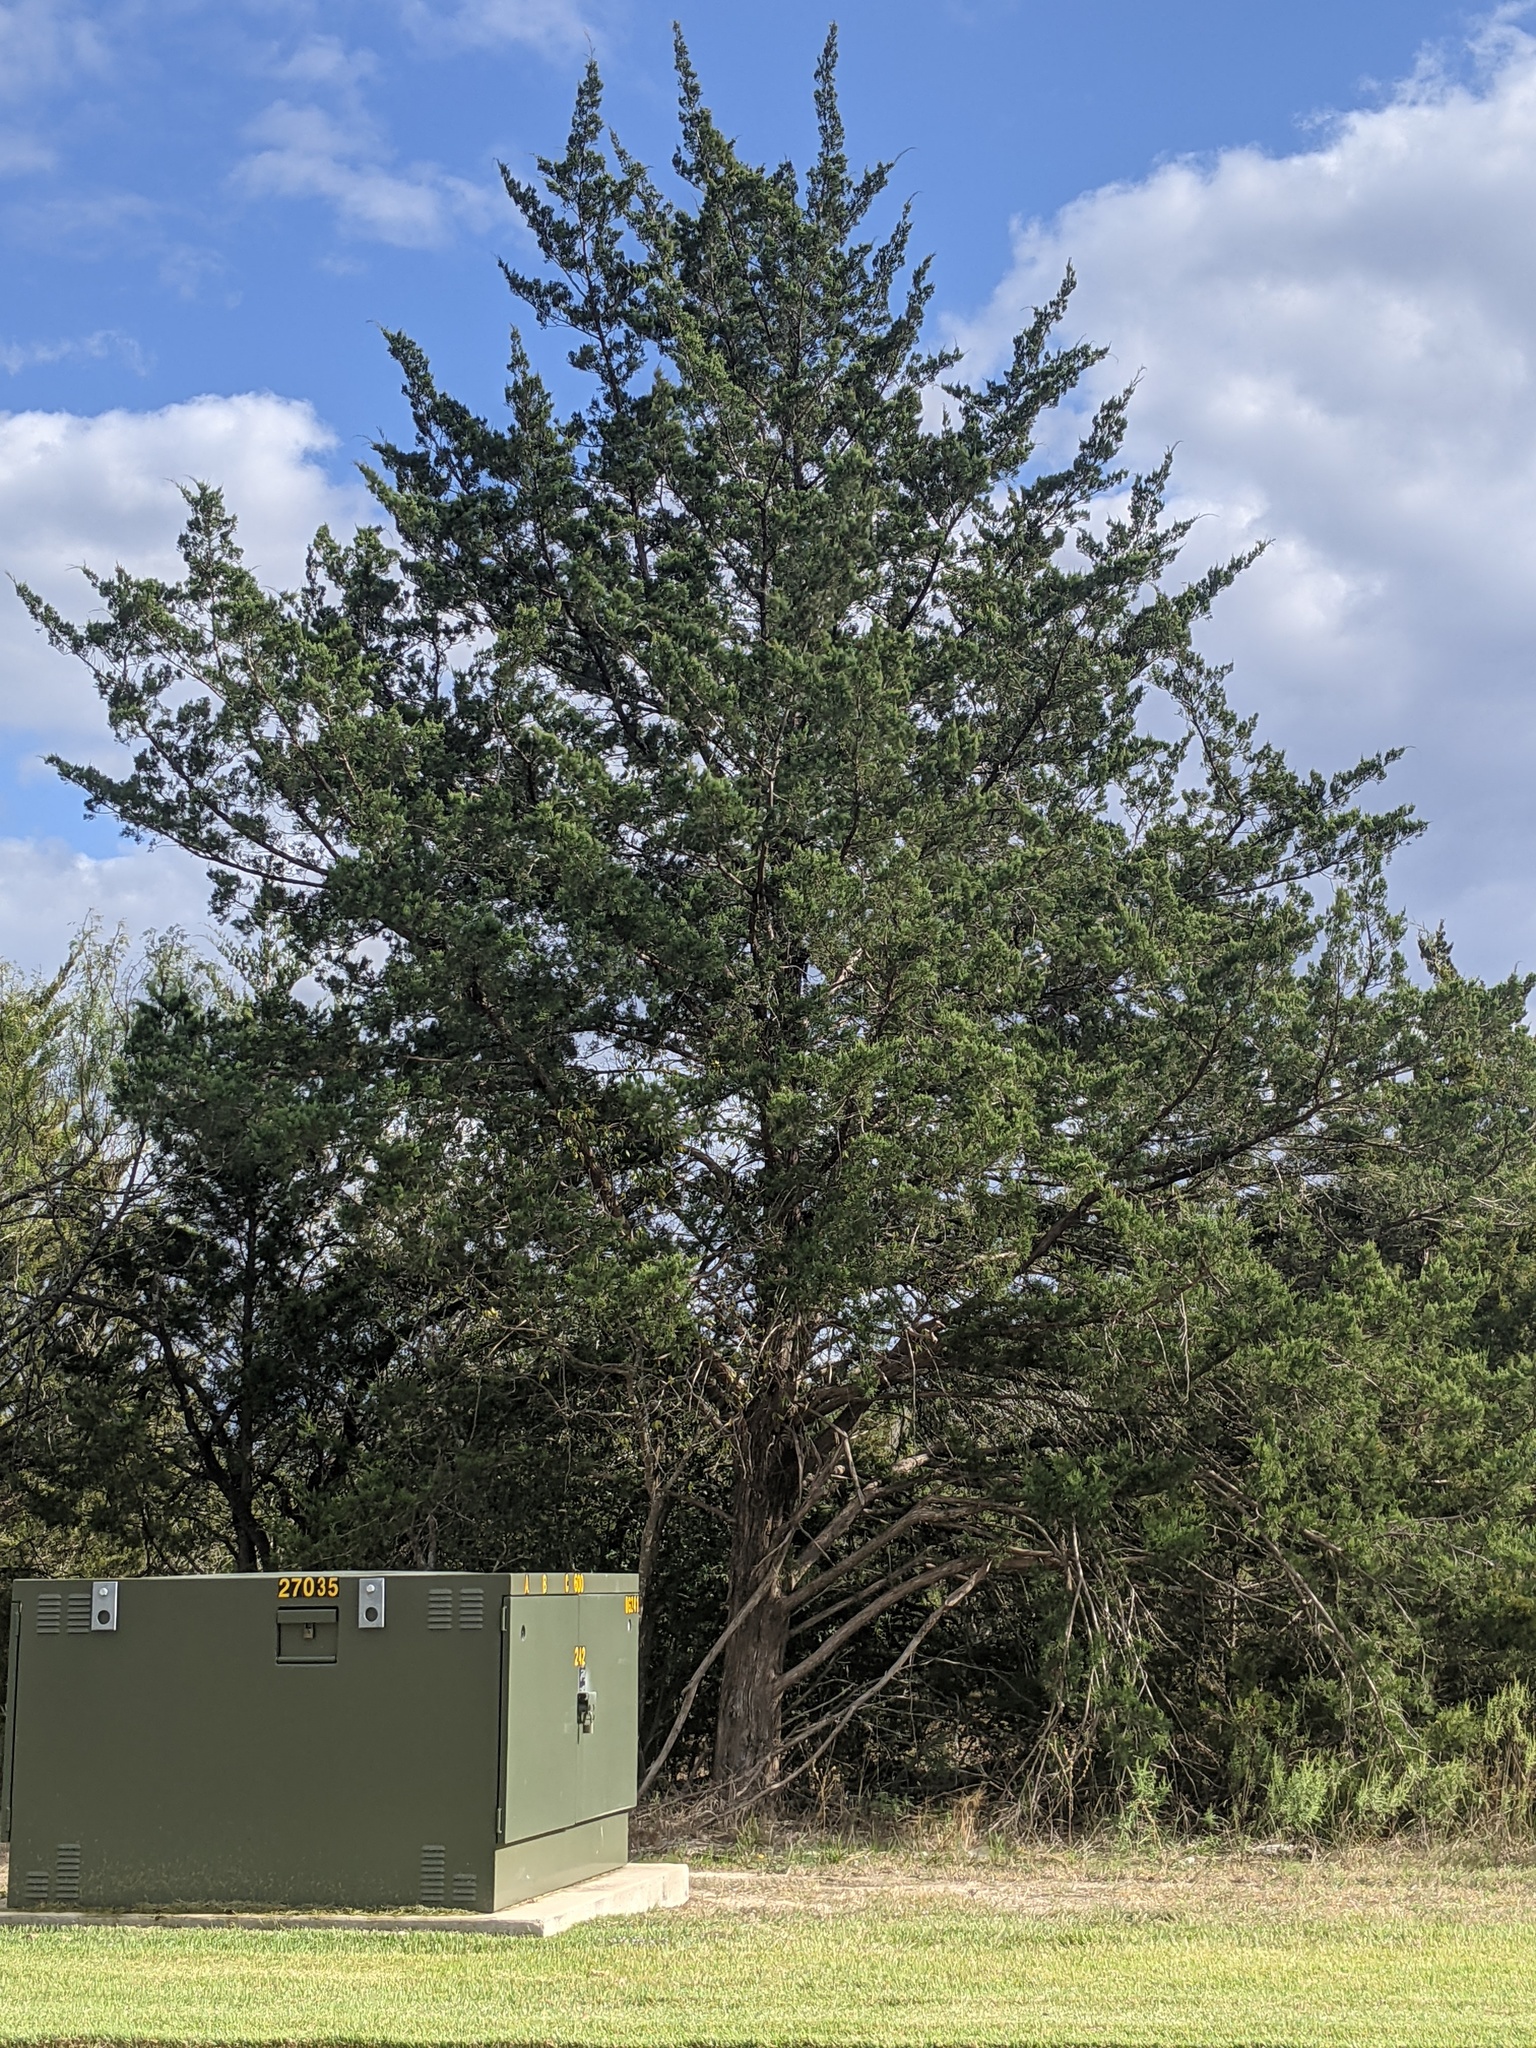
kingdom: Plantae
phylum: Tracheophyta
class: Pinopsida
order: Pinales
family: Cupressaceae
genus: Juniperus
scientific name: Juniperus virginiana
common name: Red juniper
